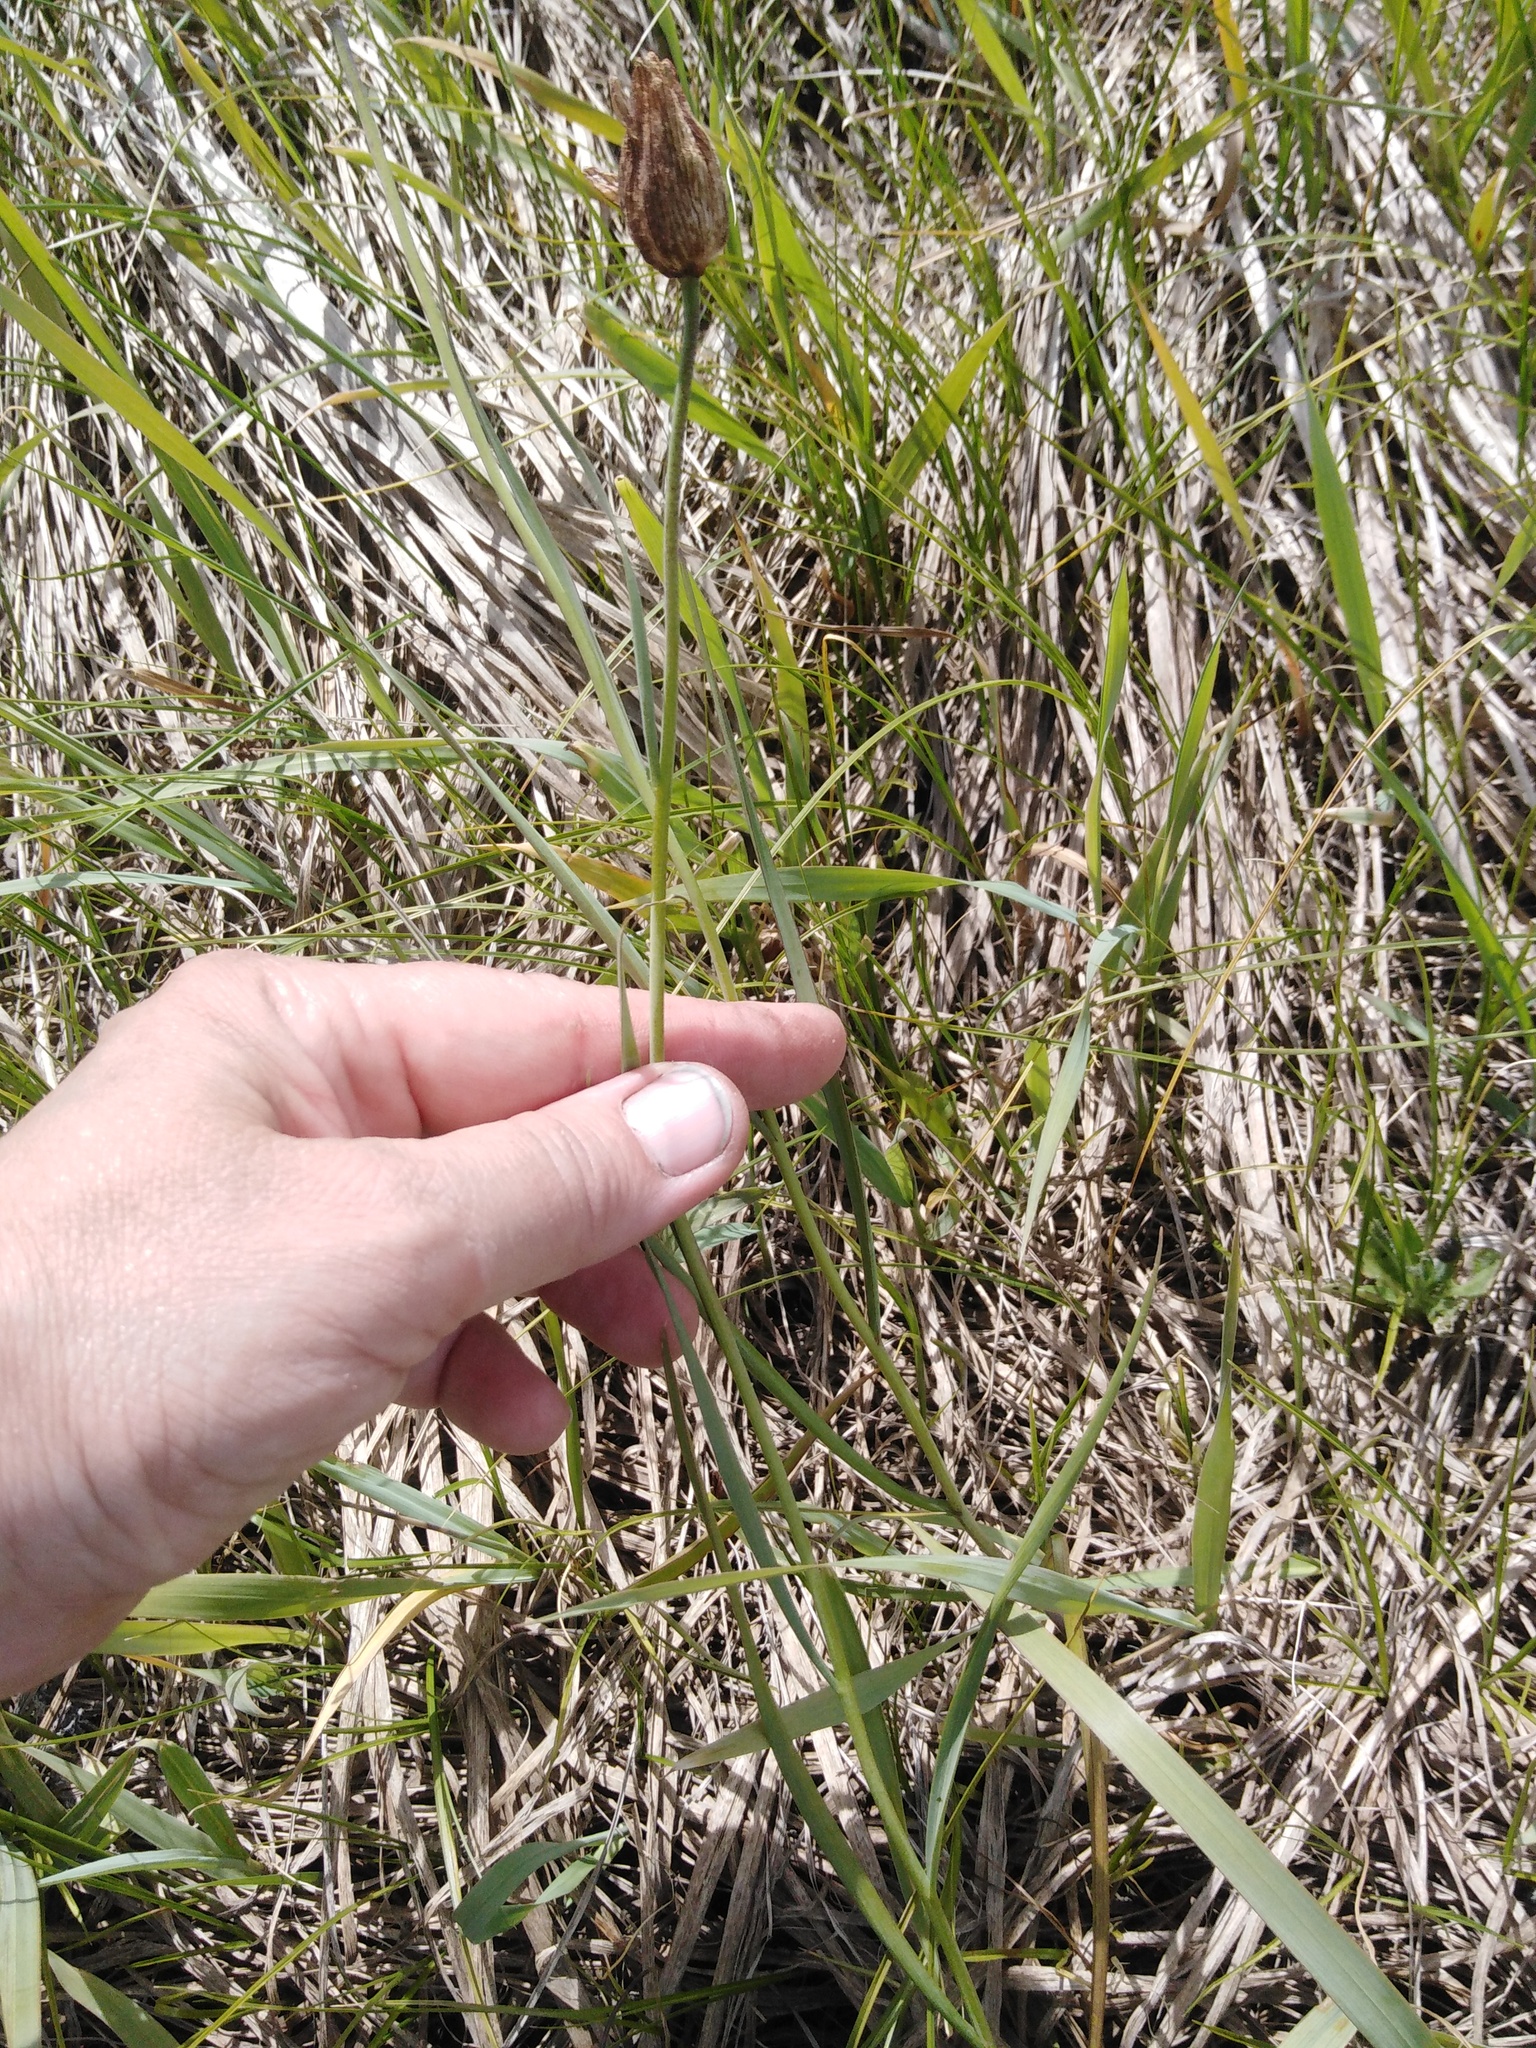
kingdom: Plantae
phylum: Tracheophyta
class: Liliopsida
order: Liliales
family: Liliaceae
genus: Fritillaria
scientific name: Fritillaria meleagroides
